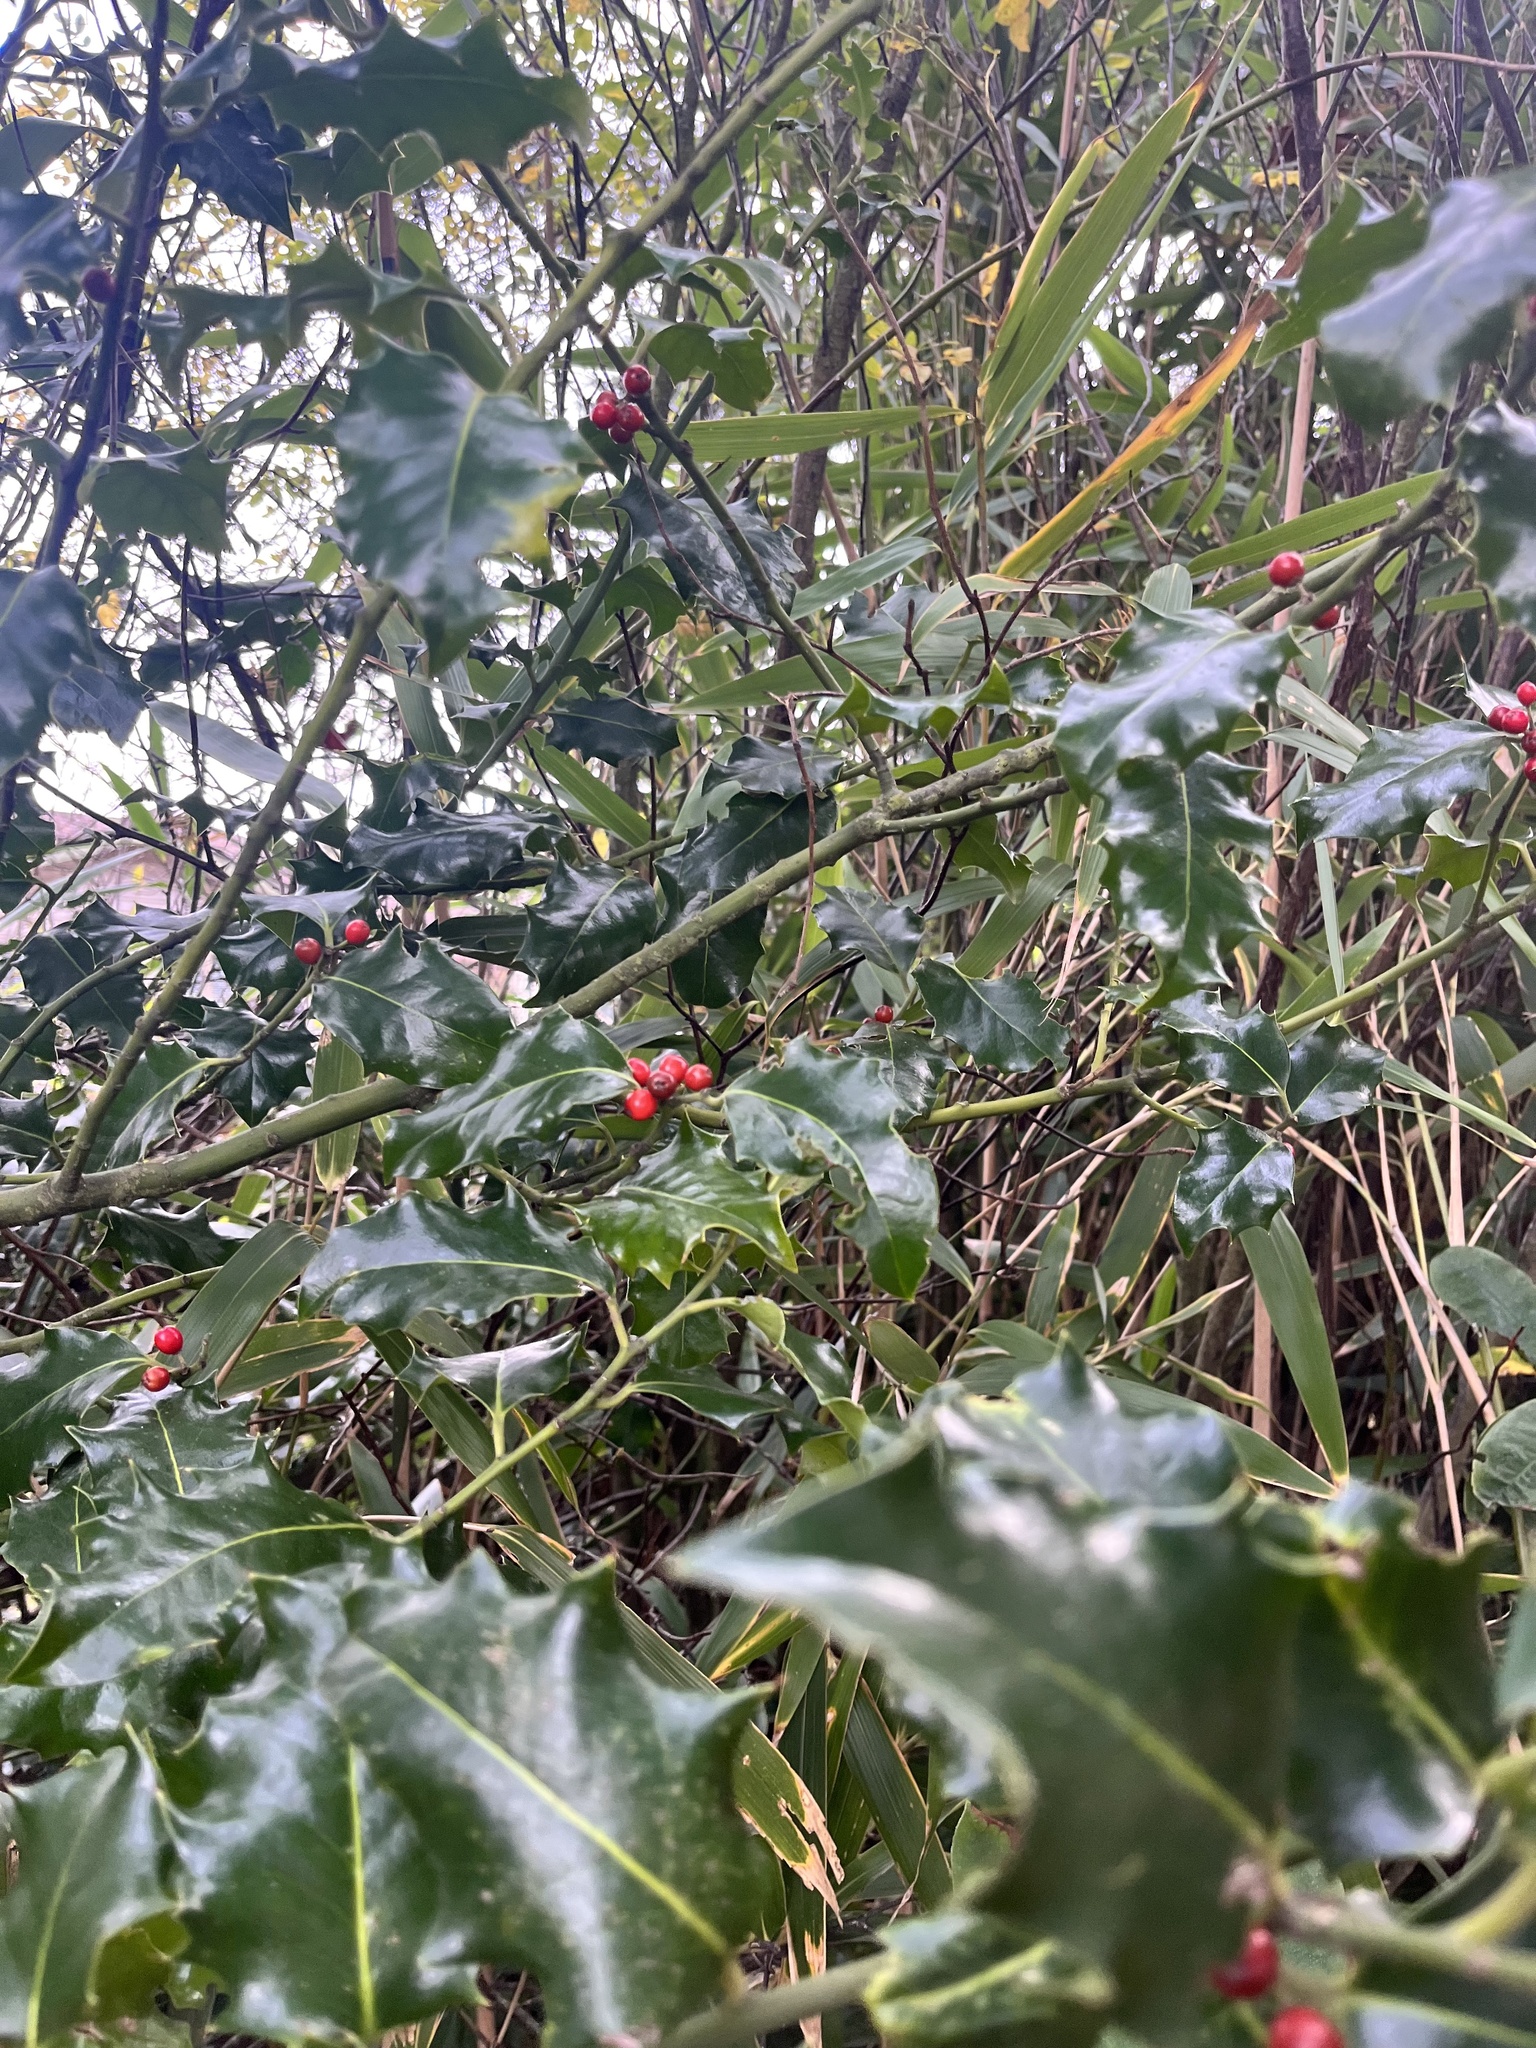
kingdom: Plantae
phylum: Tracheophyta
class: Magnoliopsida
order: Aquifoliales
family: Aquifoliaceae
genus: Ilex
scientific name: Ilex aquifolium
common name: English holly
